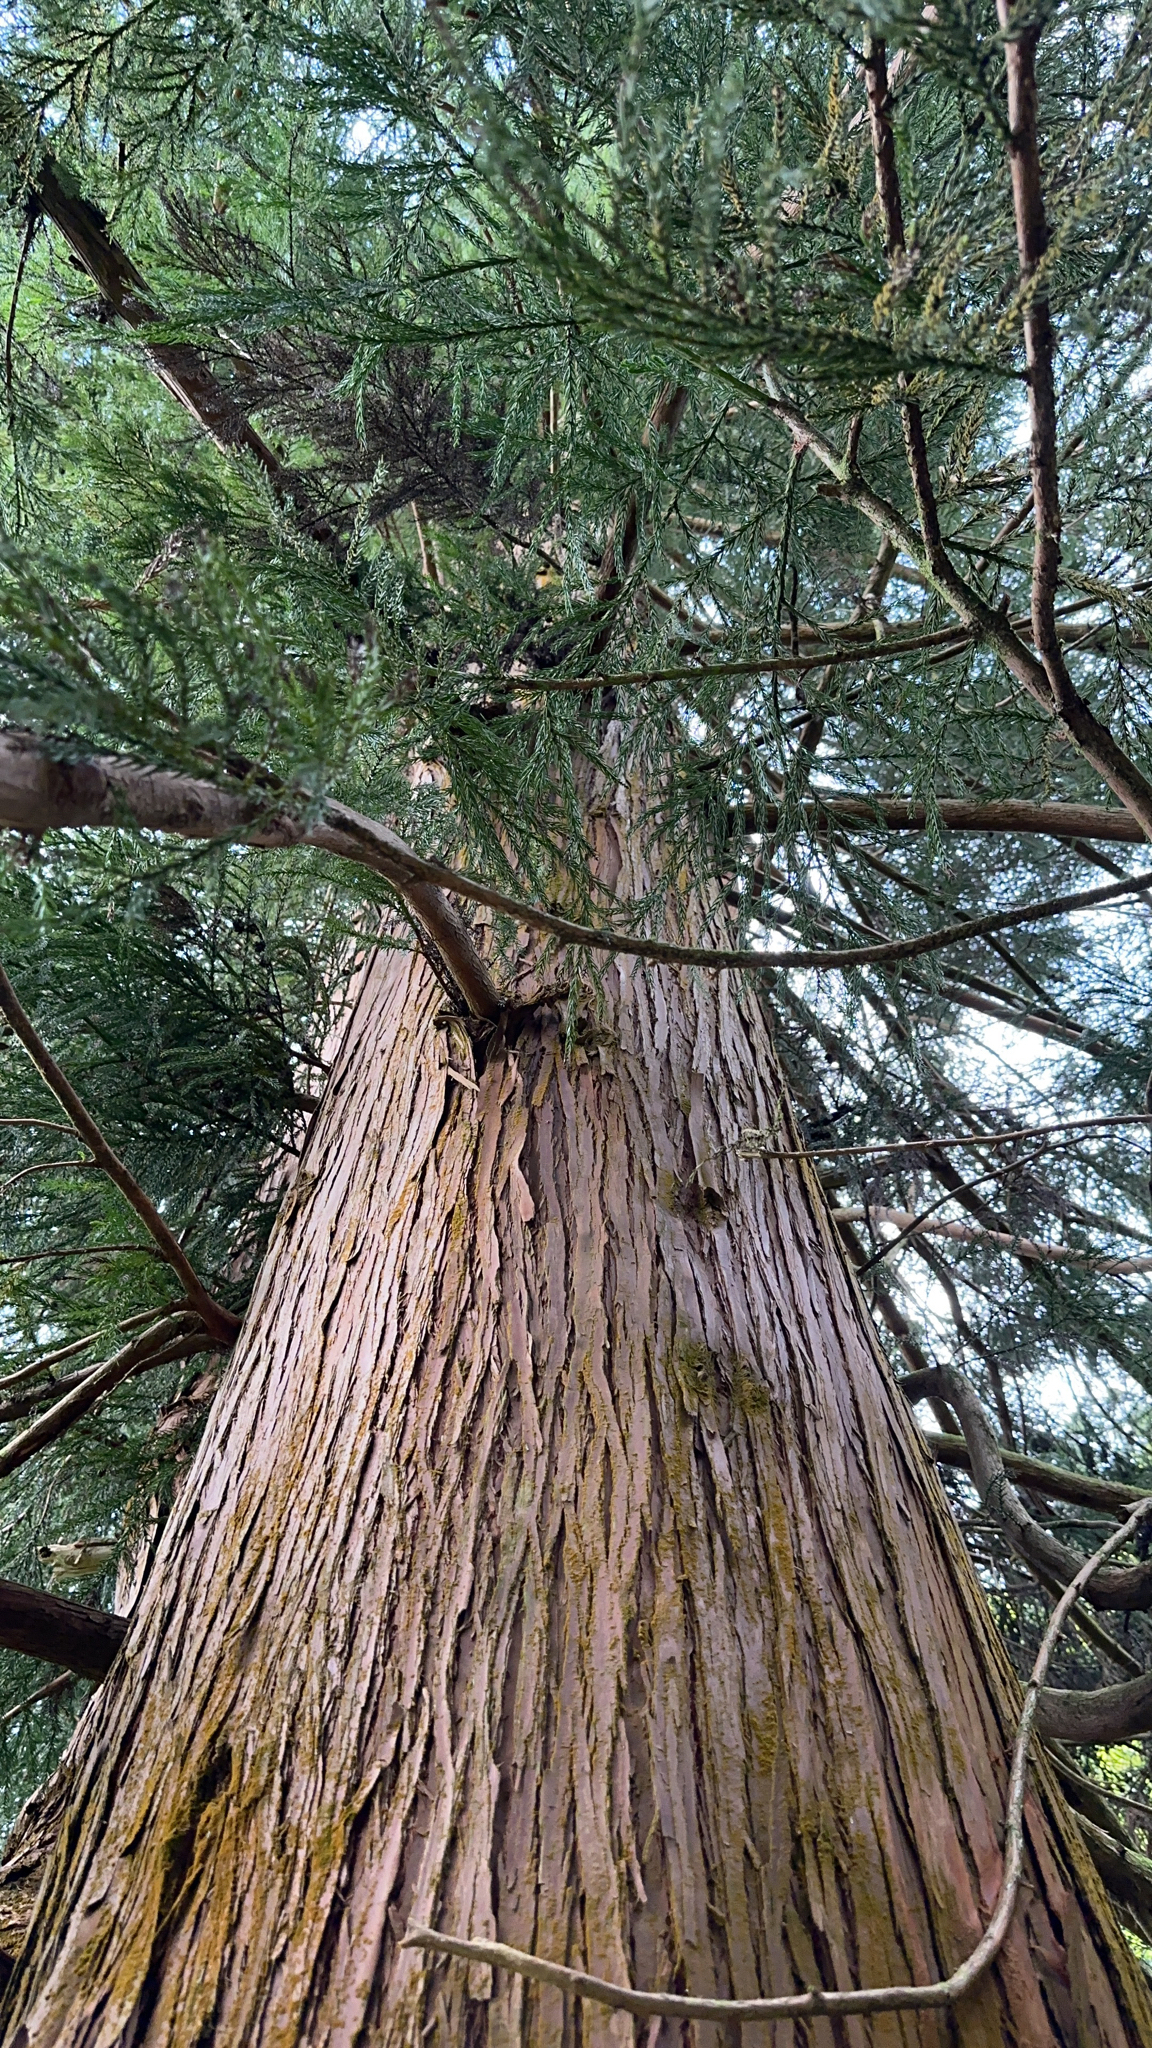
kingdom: Plantae
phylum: Tracheophyta
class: Pinopsida
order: Pinales
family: Cupressaceae
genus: Cryptomeria
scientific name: Cryptomeria japonica
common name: Japanese cedar
